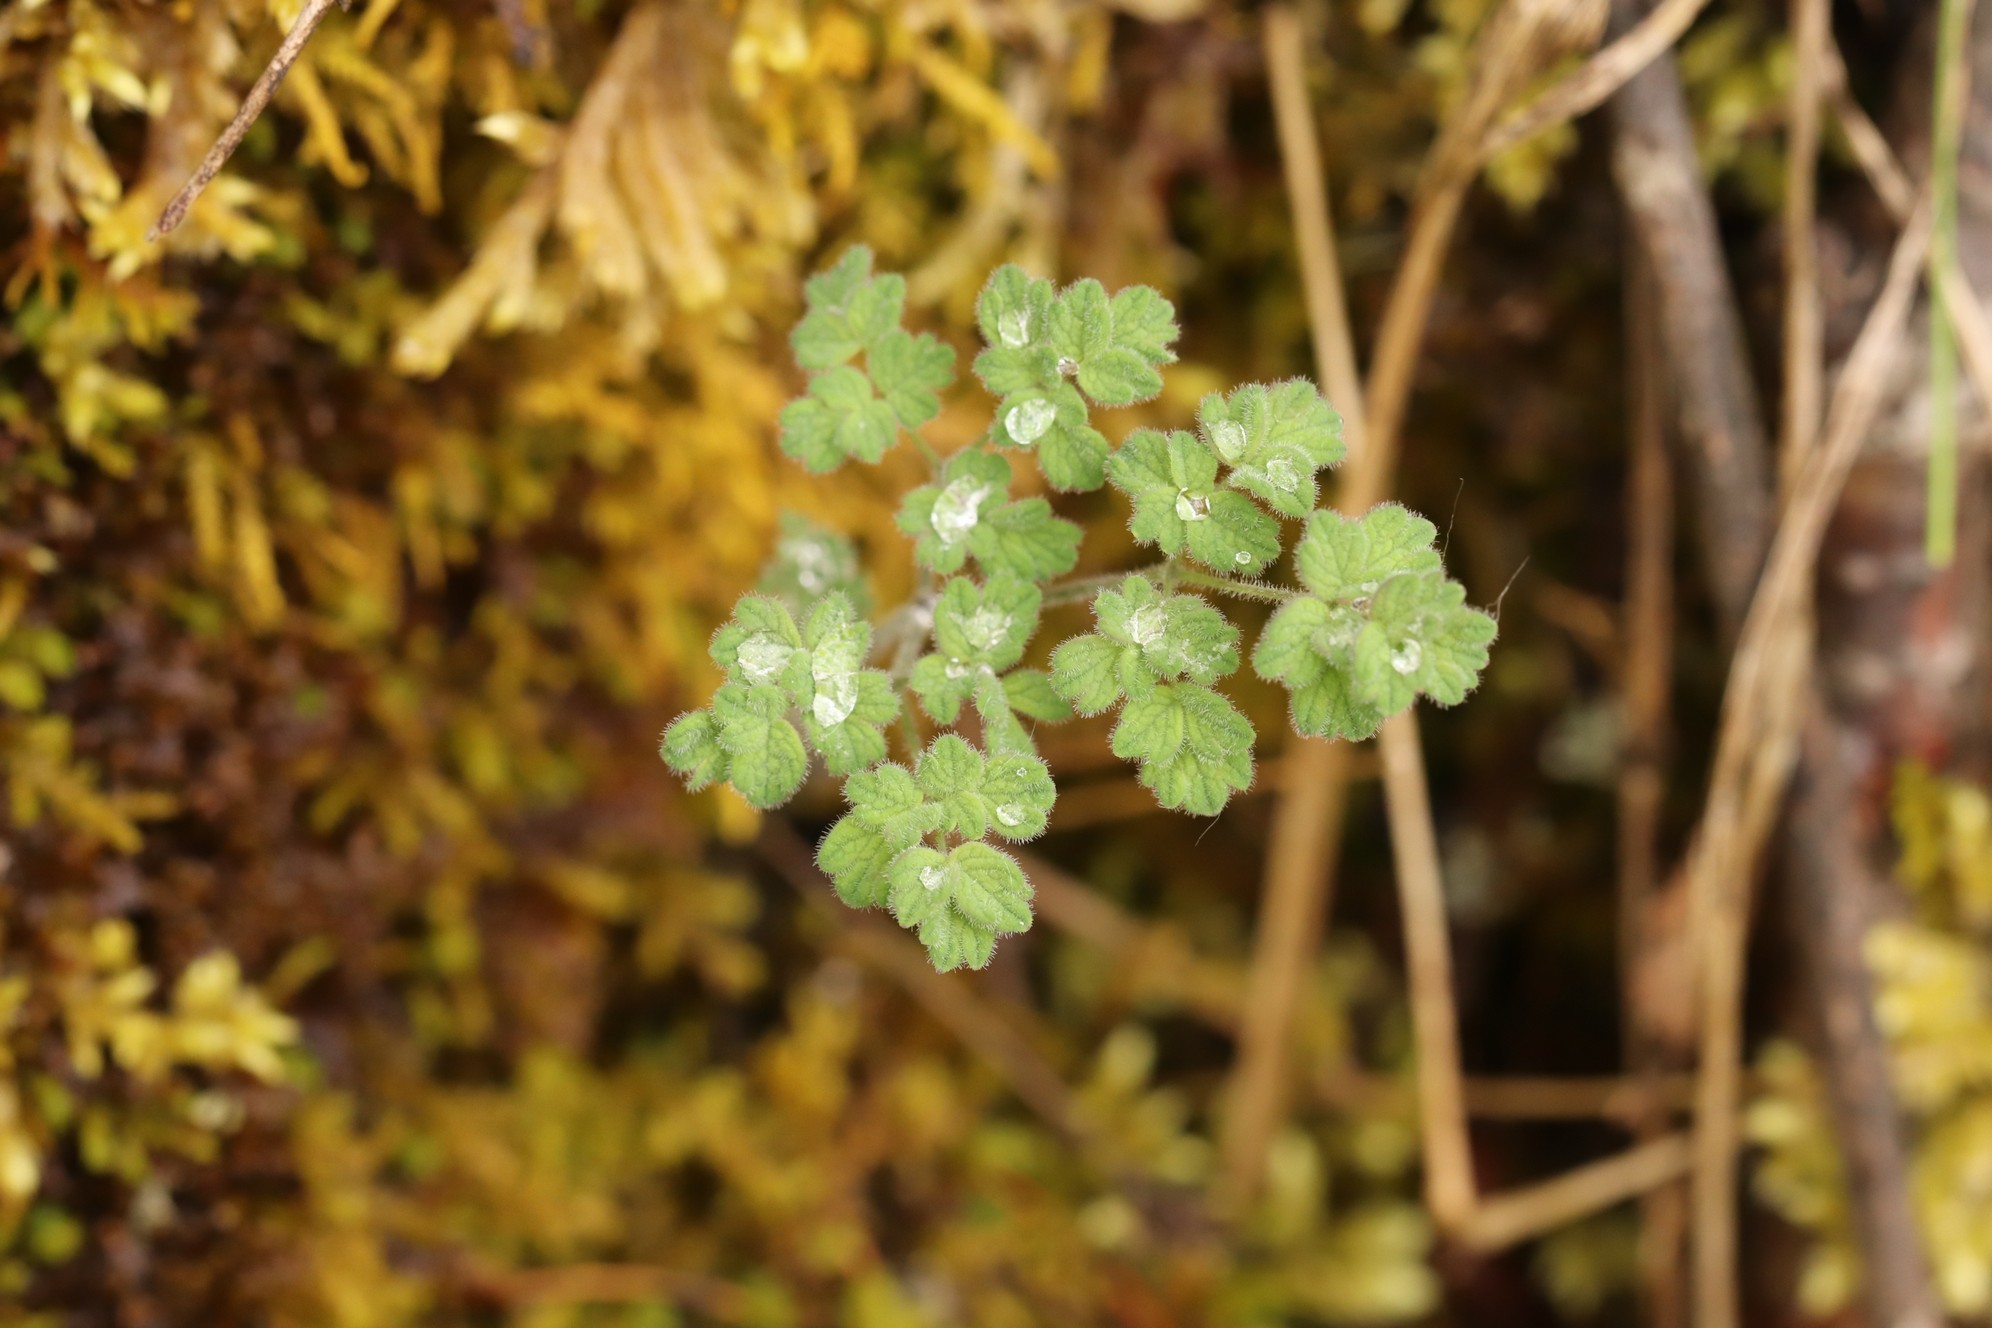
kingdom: Plantae
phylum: Tracheophyta
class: Magnoliopsida
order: Ranunculales
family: Ranunculaceae
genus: Thalictrum
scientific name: Thalictrum foetidum
